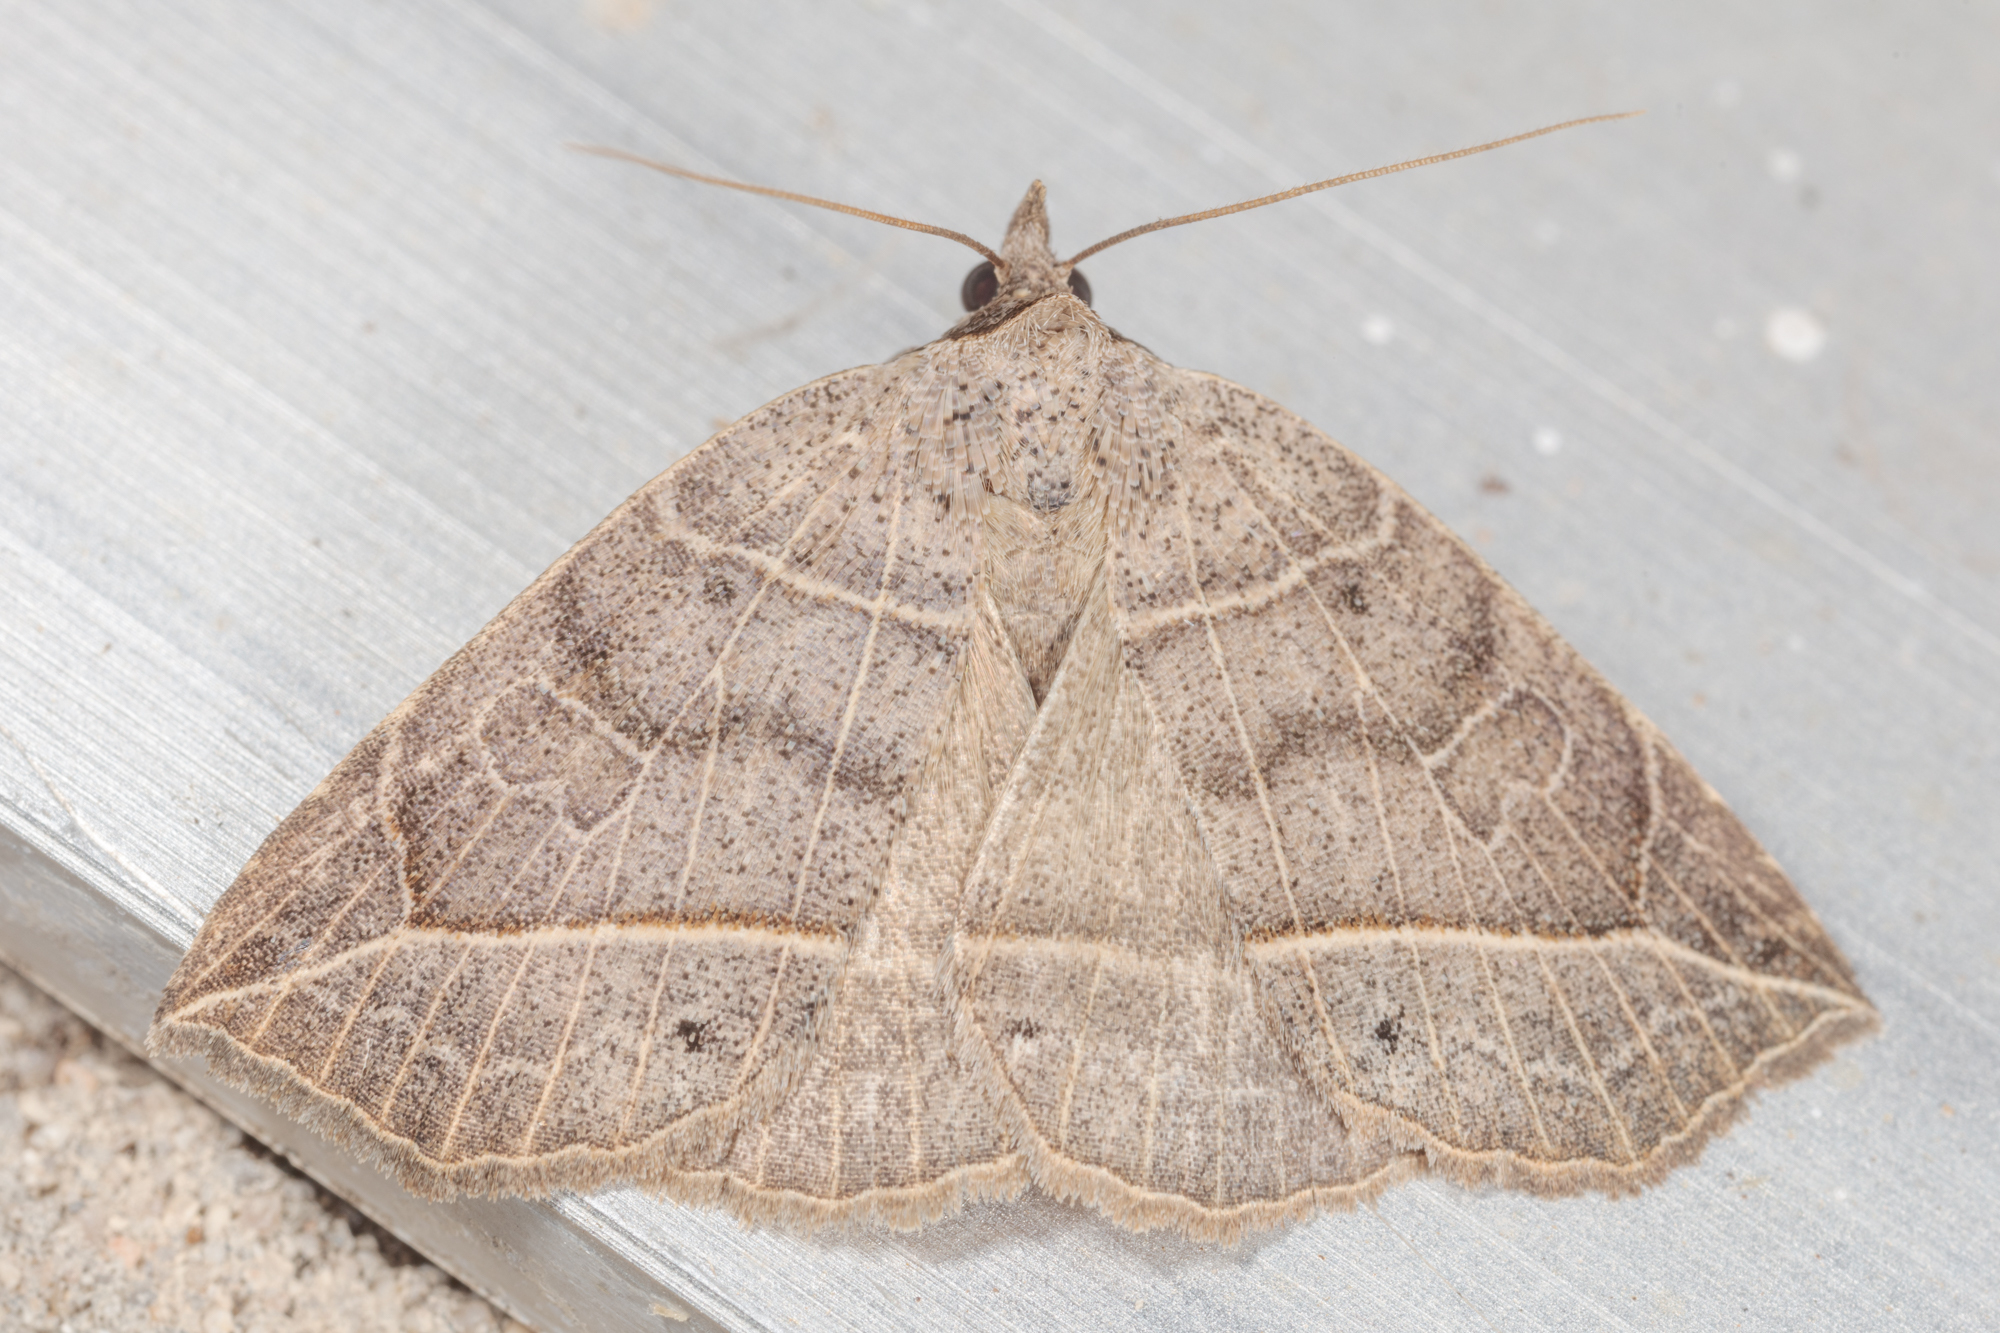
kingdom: Animalia
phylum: Arthropoda
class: Insecta
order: Lepidoptera
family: Erebidae
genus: Isogona
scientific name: Isogona tenuis
